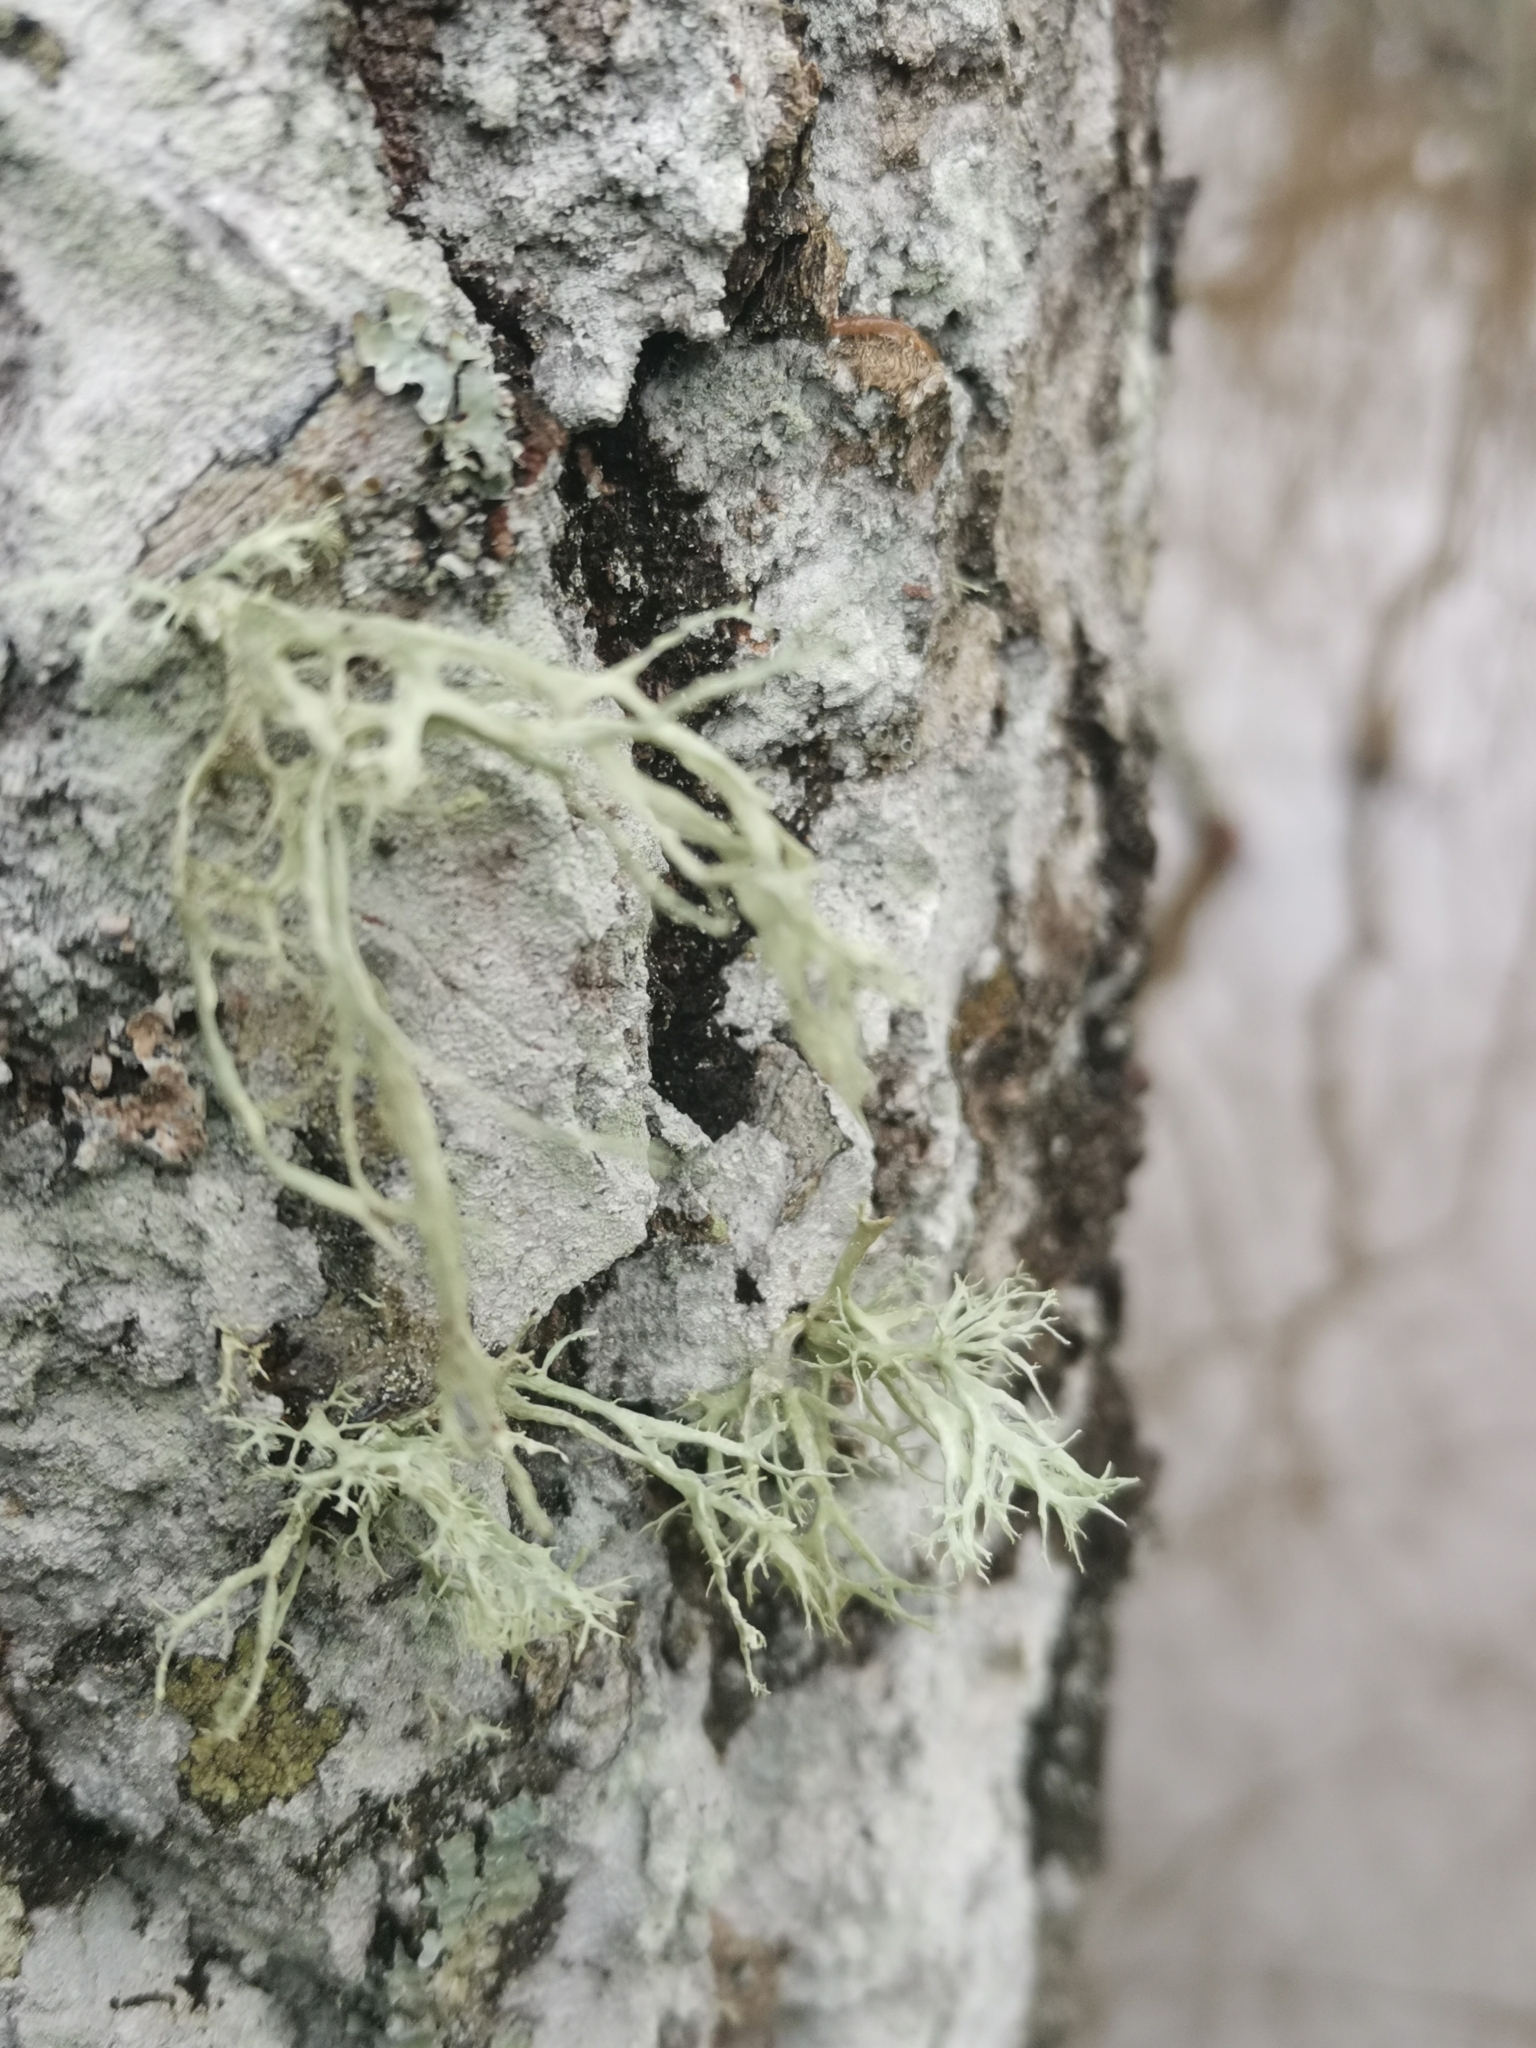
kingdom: Fungi
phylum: Ascomycota
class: Lecanoromycetes
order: Lecanorales
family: Ramalinaceae
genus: Ramalina
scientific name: Ramalina farinacea
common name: Farinose cartilage lichen
